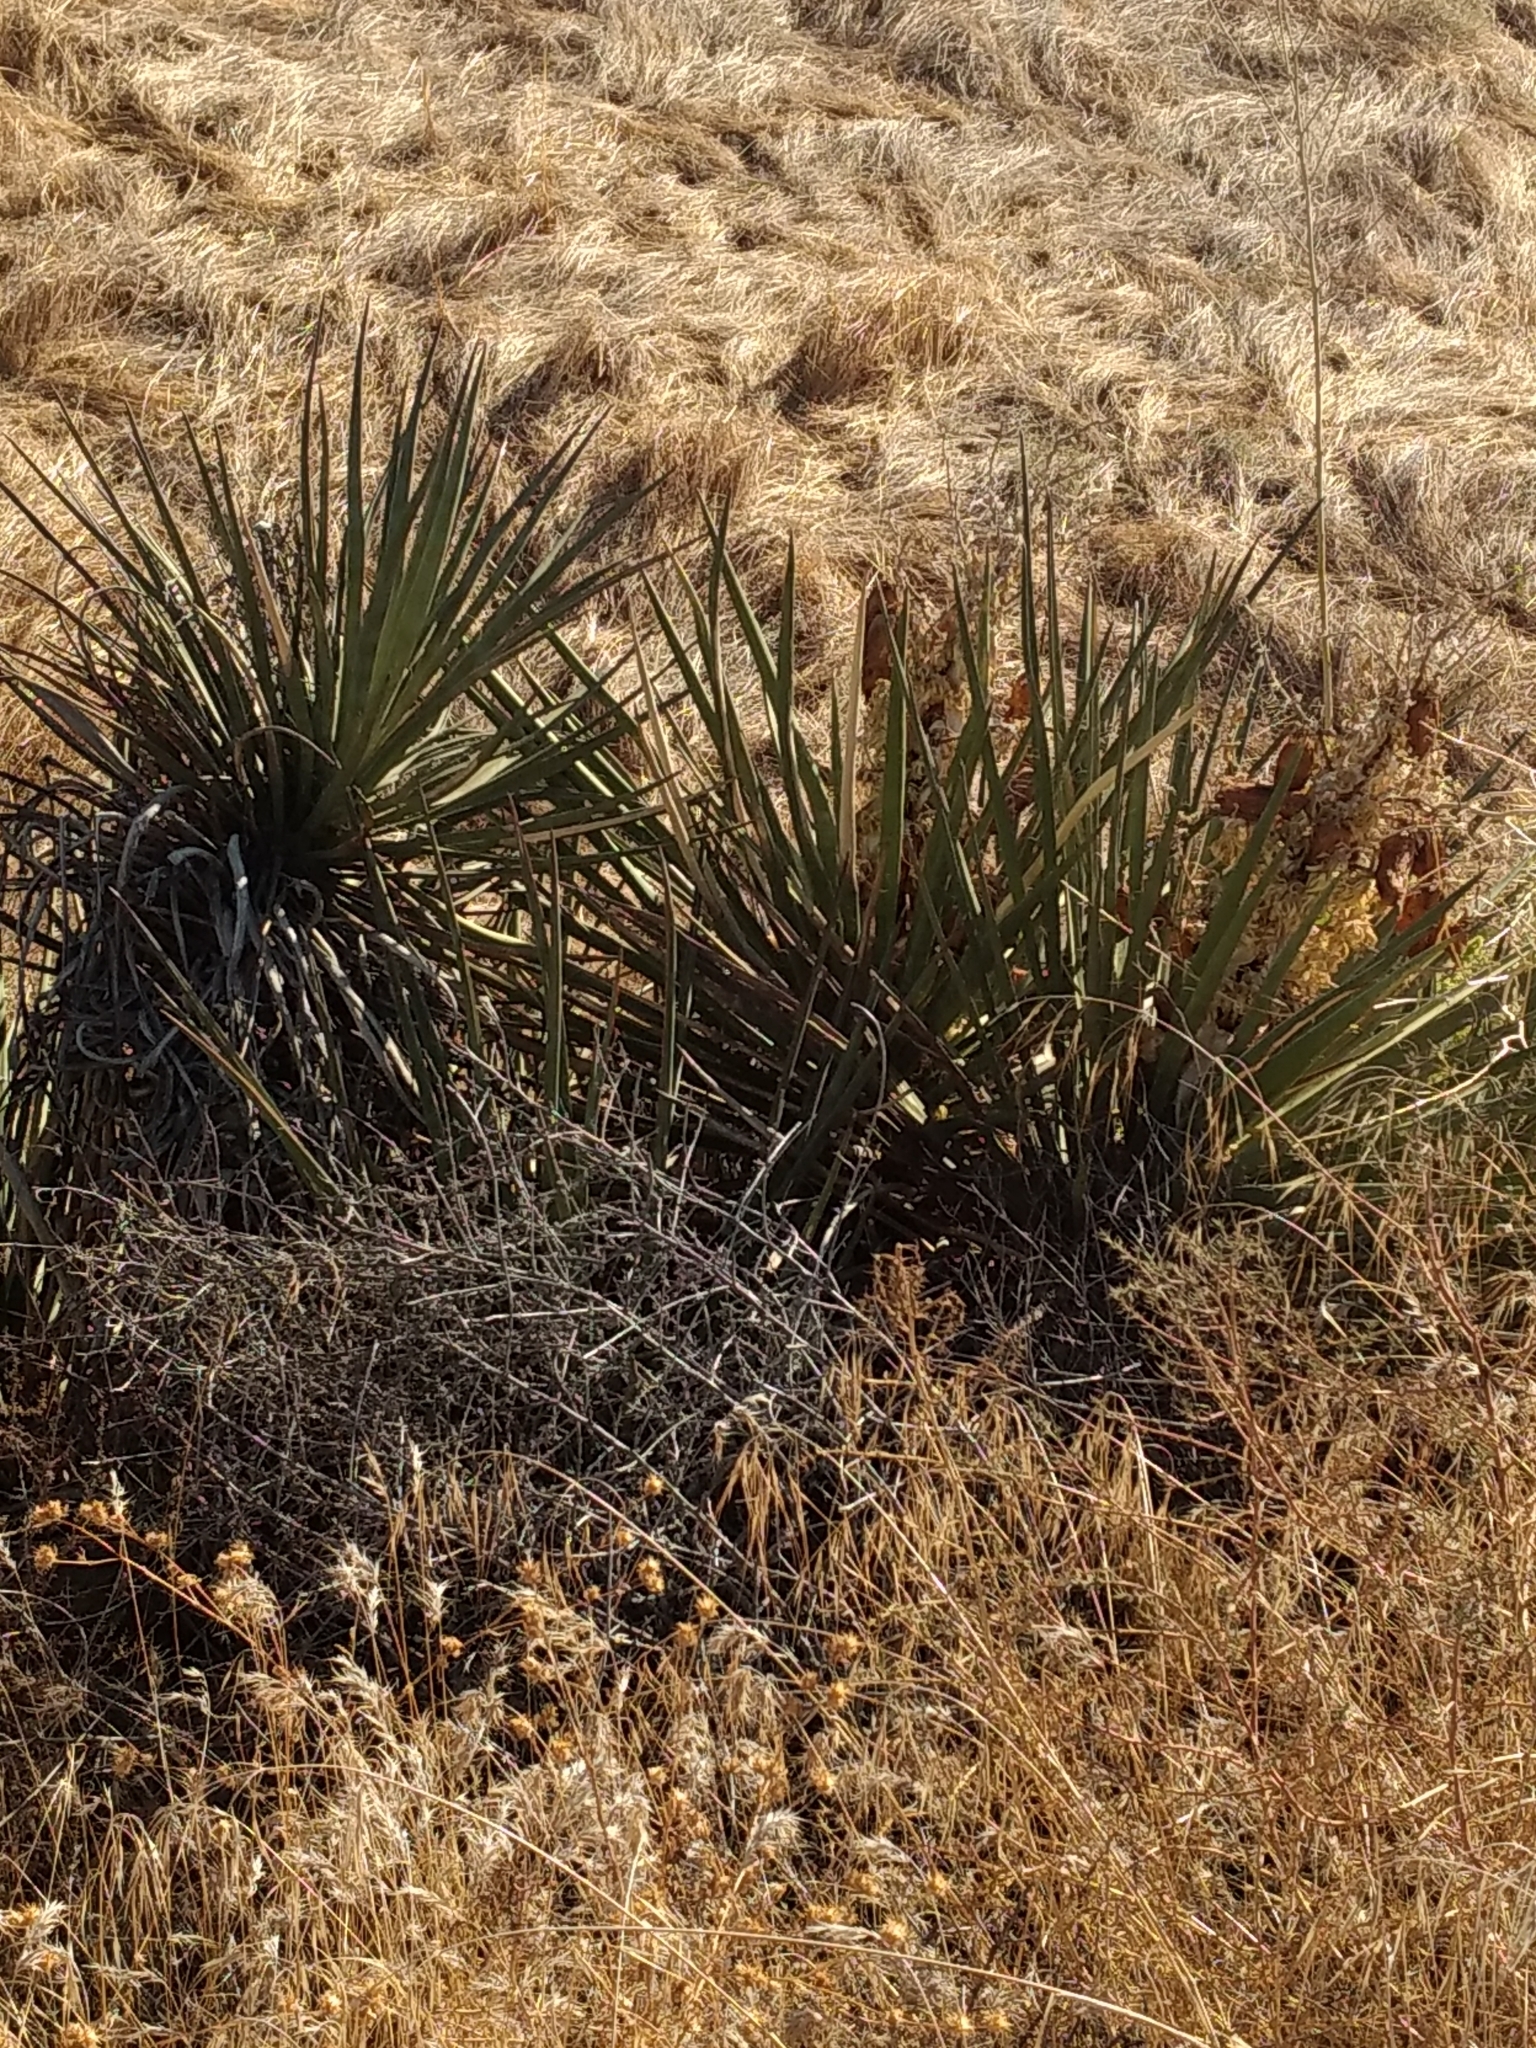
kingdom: Plantae
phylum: Tracheophyta
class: Liliopsida
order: Asparagales
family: Asparagaceae
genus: Yucca
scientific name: Yucca schidigera
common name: Mojave yucca
